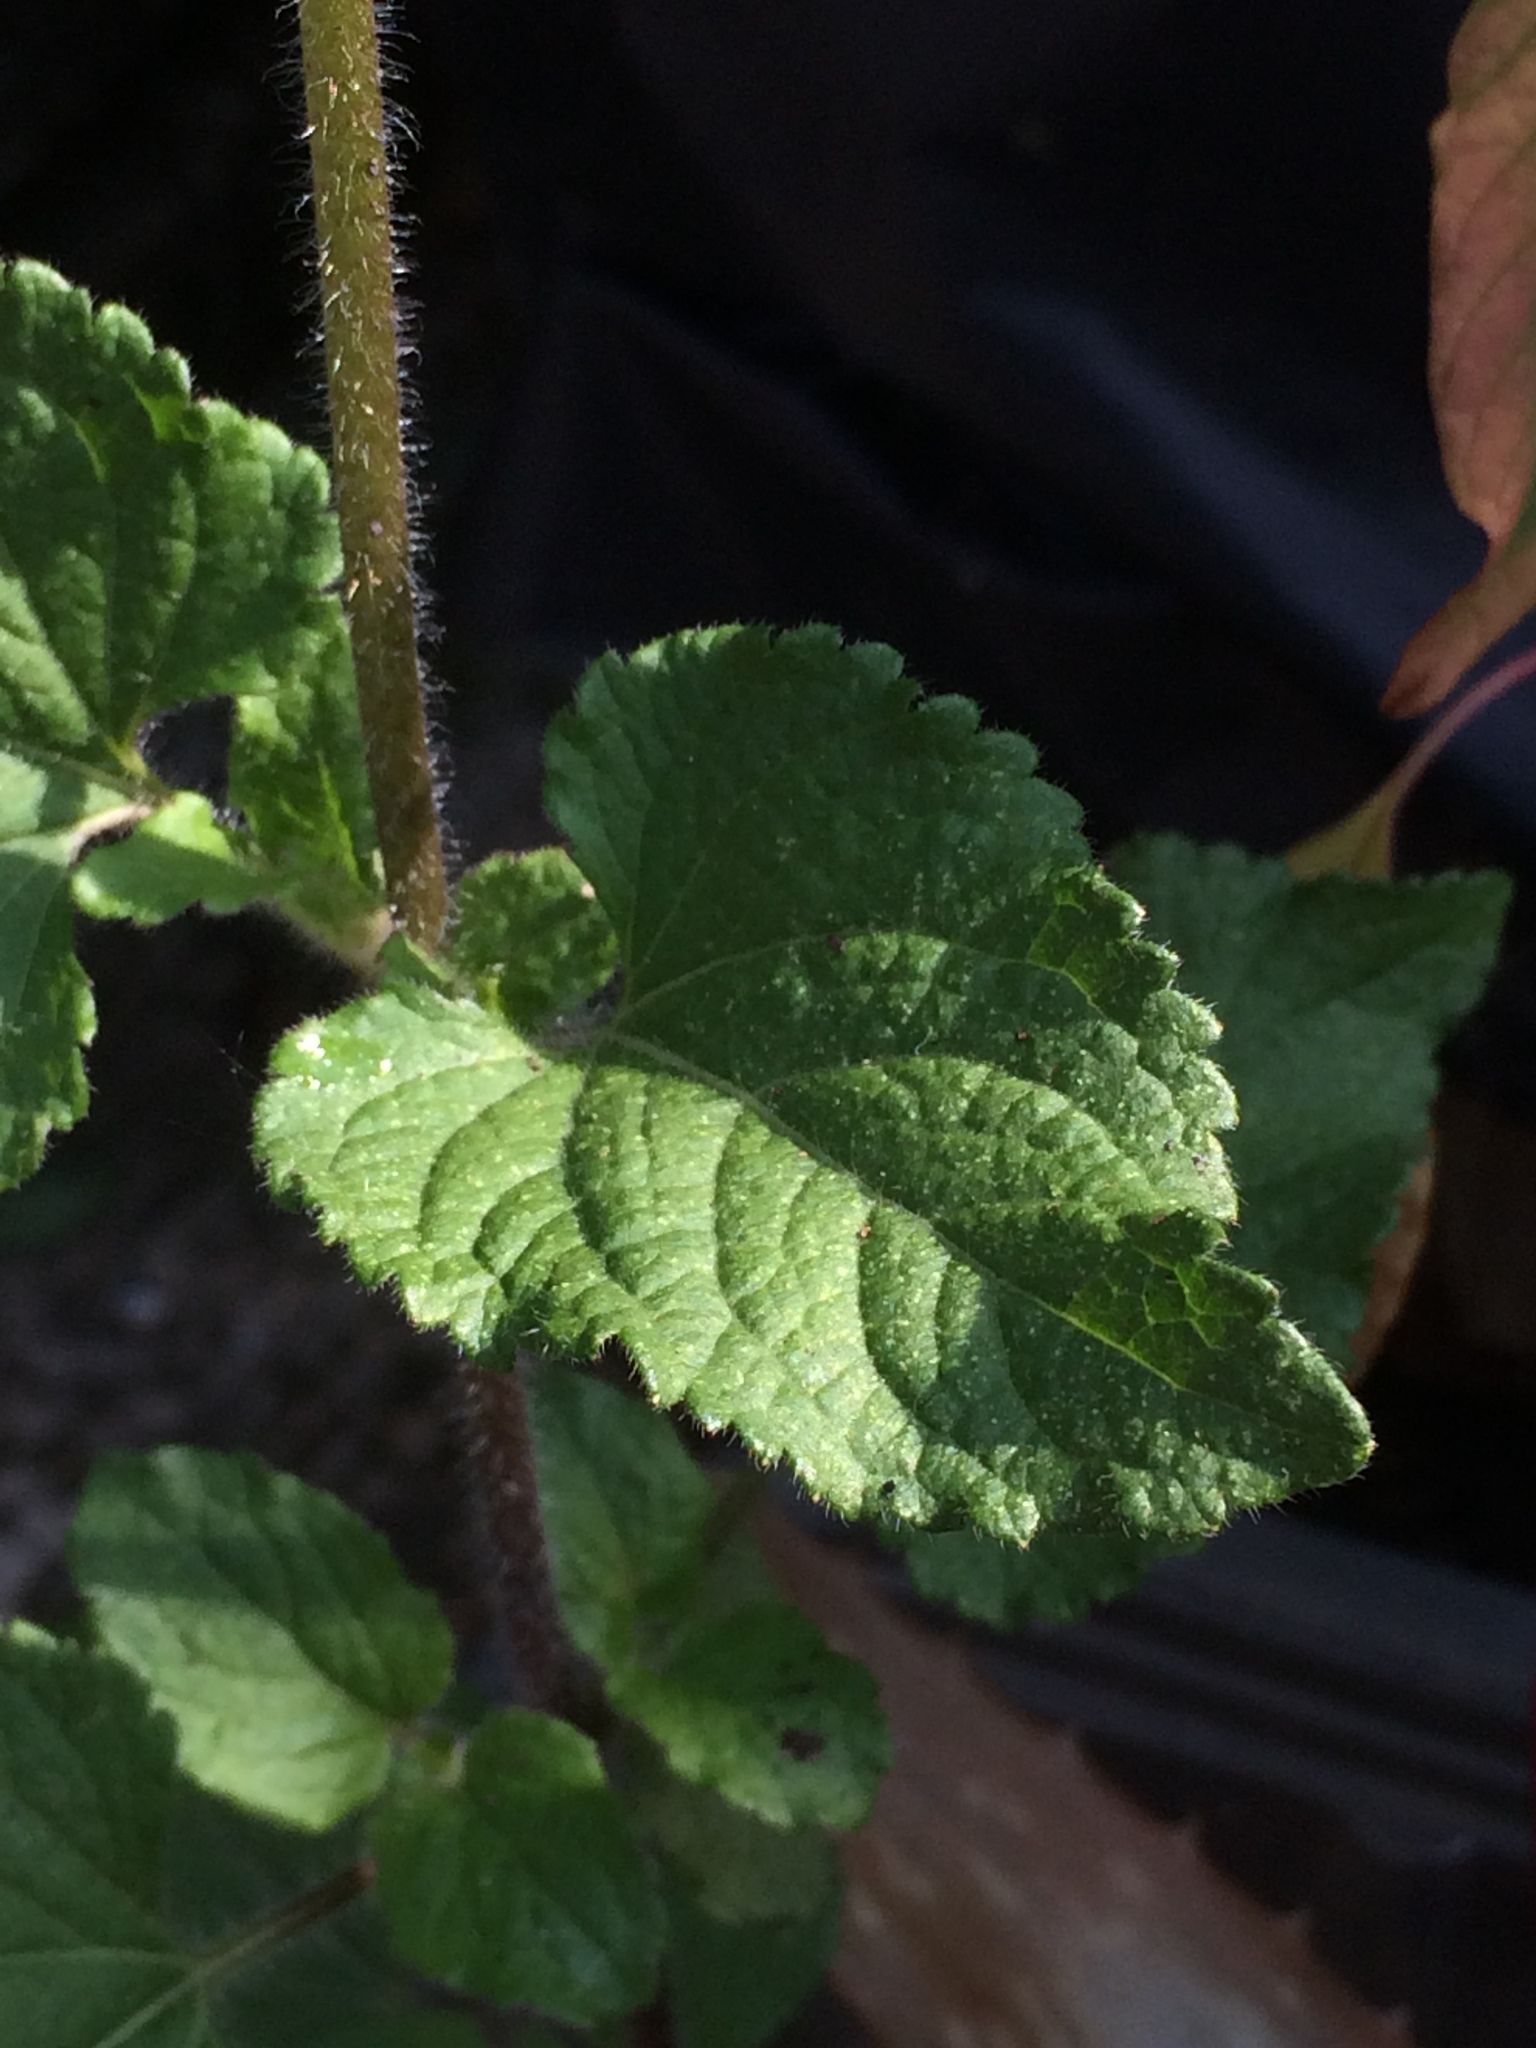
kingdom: Plantae
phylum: Tracheophyta
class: Magnoliopsida
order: Asterales
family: Asteraceae
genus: Ageratum
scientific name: Ageratum houstonianum
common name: Bluemink
